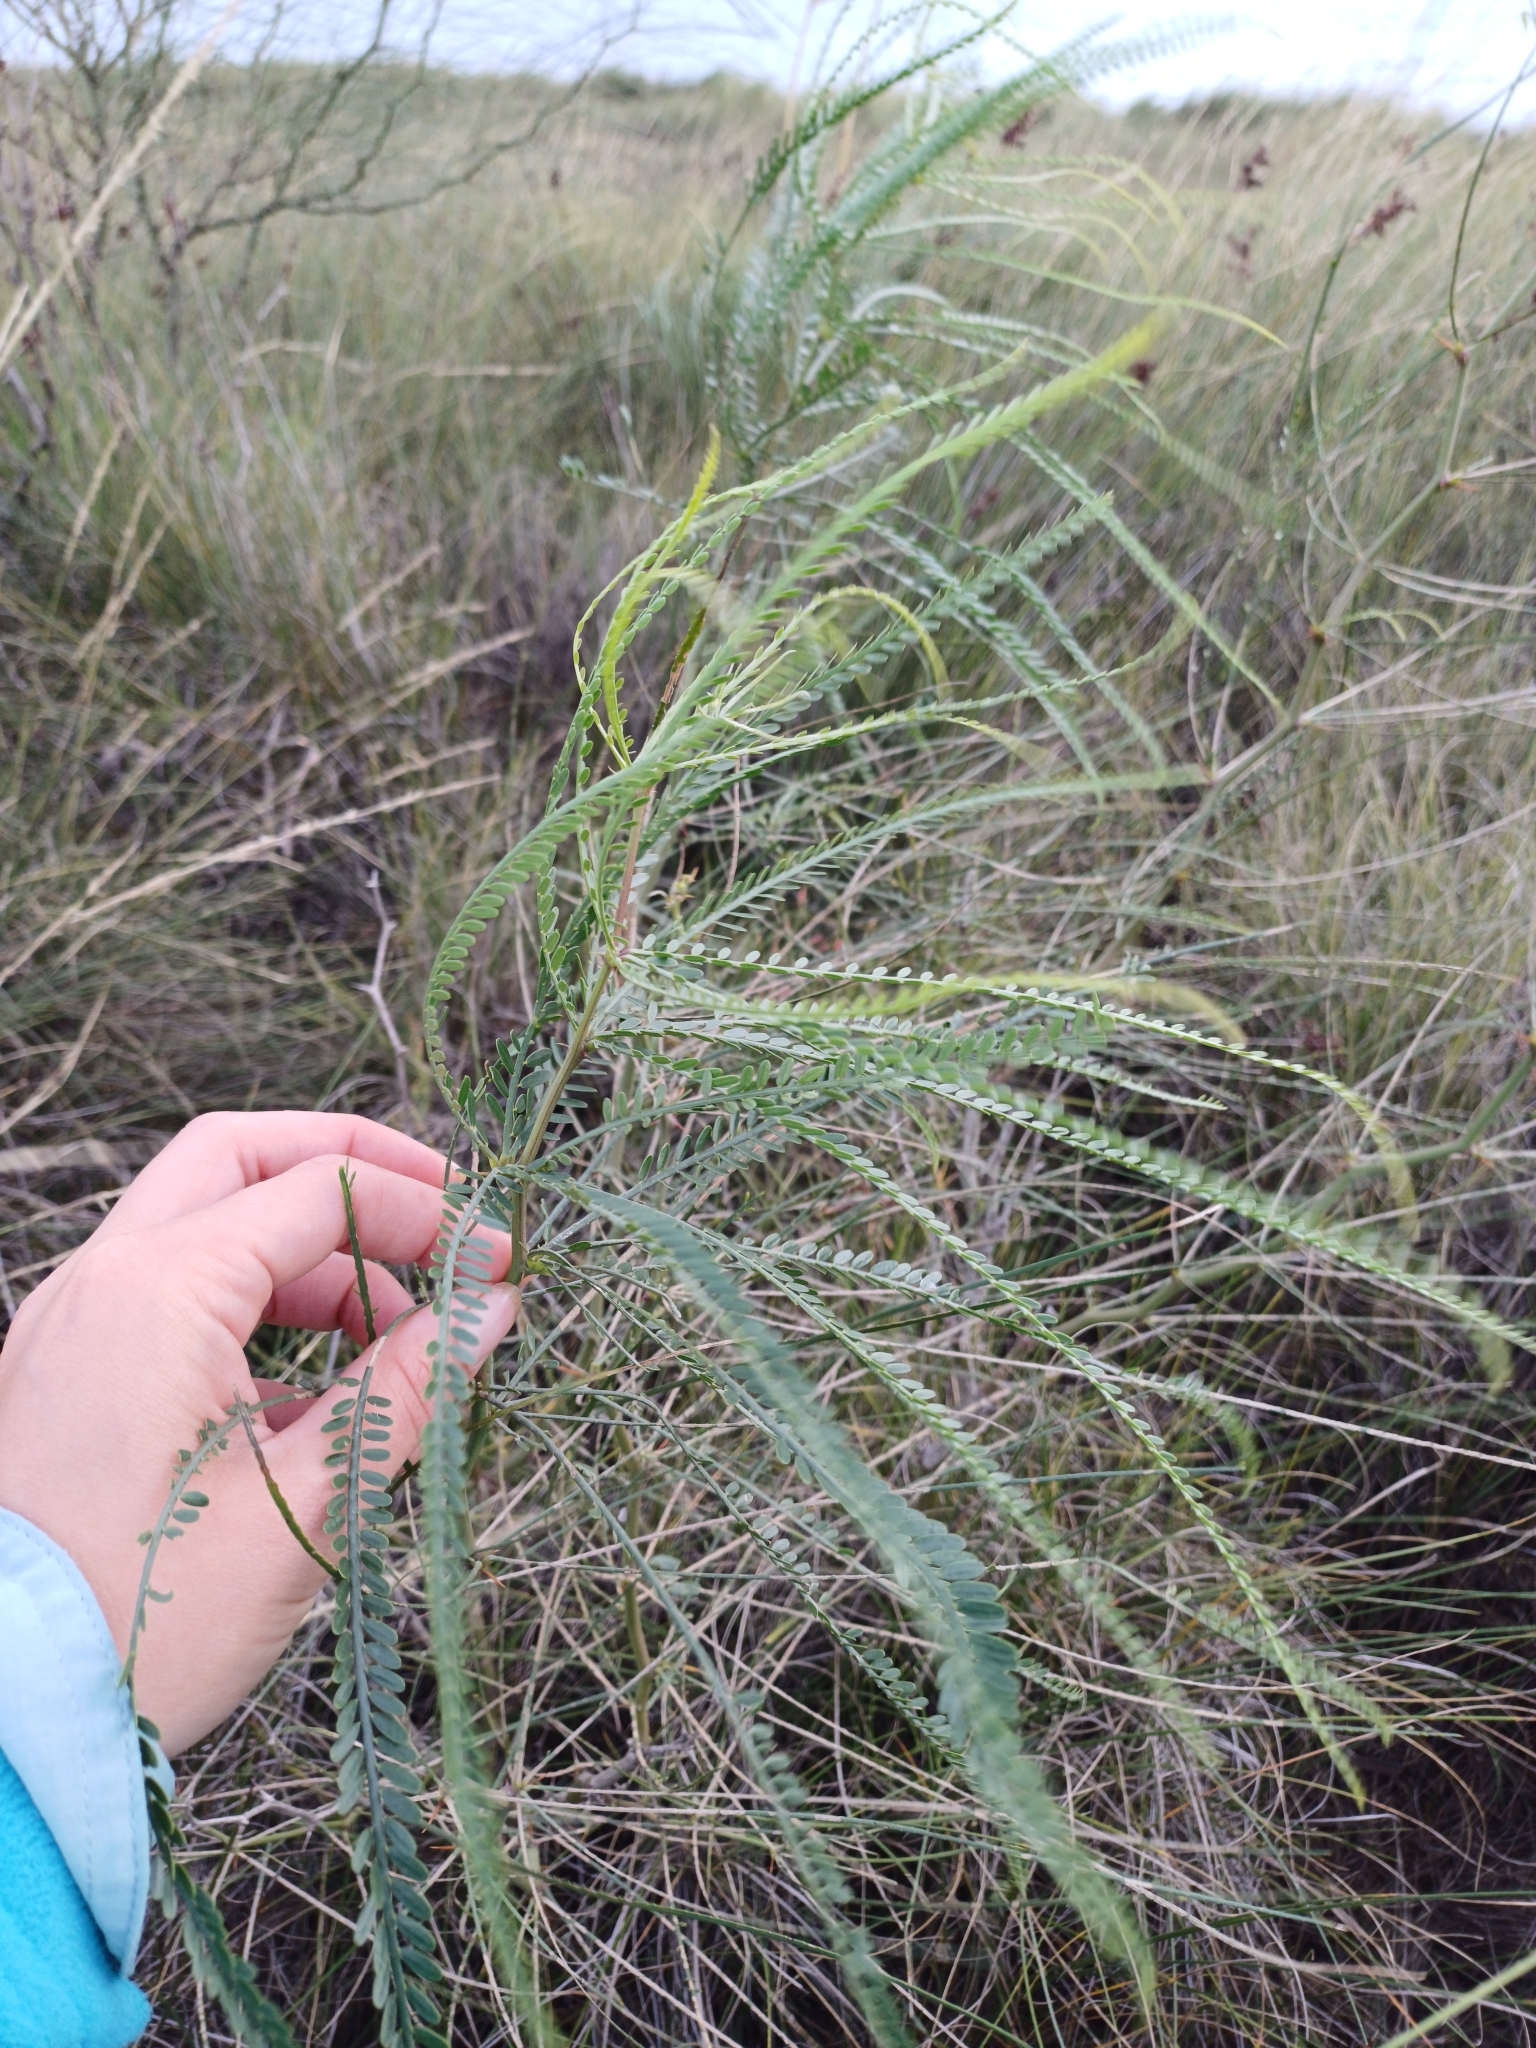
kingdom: Plantae
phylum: Tracheophyta
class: Magnoliopsida
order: Fabales
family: Fabaceae
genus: Parkinsonia
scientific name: Parkinsonia aculeata
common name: Jerusalem thorn
